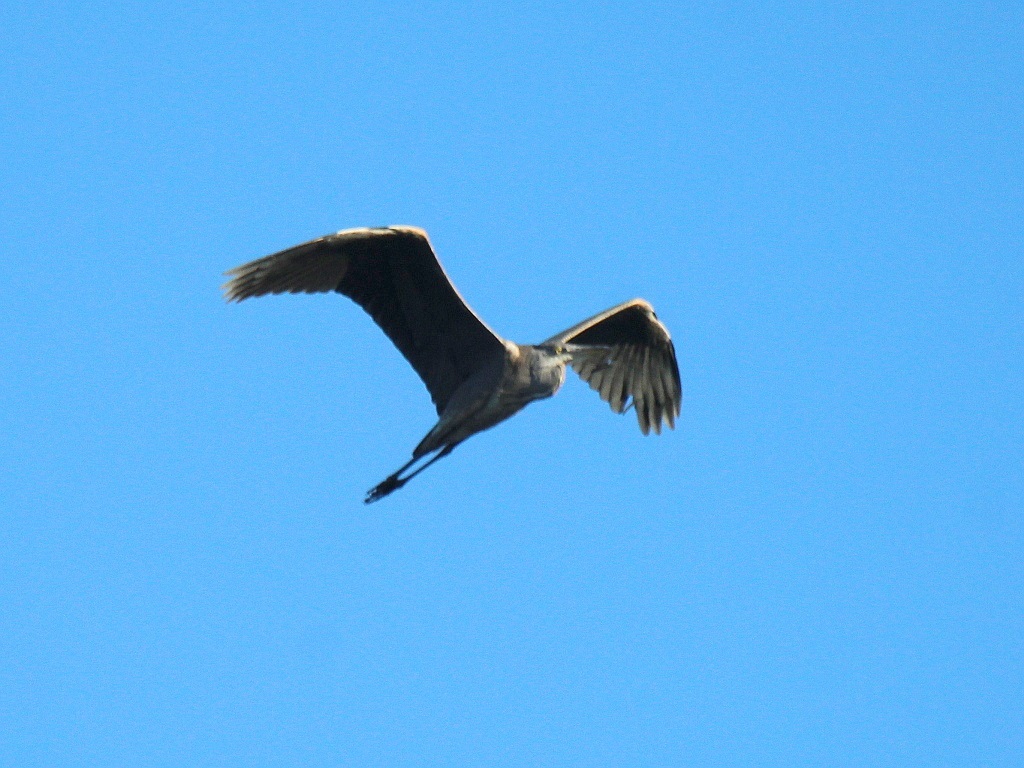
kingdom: Animalia
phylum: Chordata
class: Aves
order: Pelecaniformes
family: Ardeidae
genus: Ardea
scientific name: Ardea cinerea
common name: Grey heron
